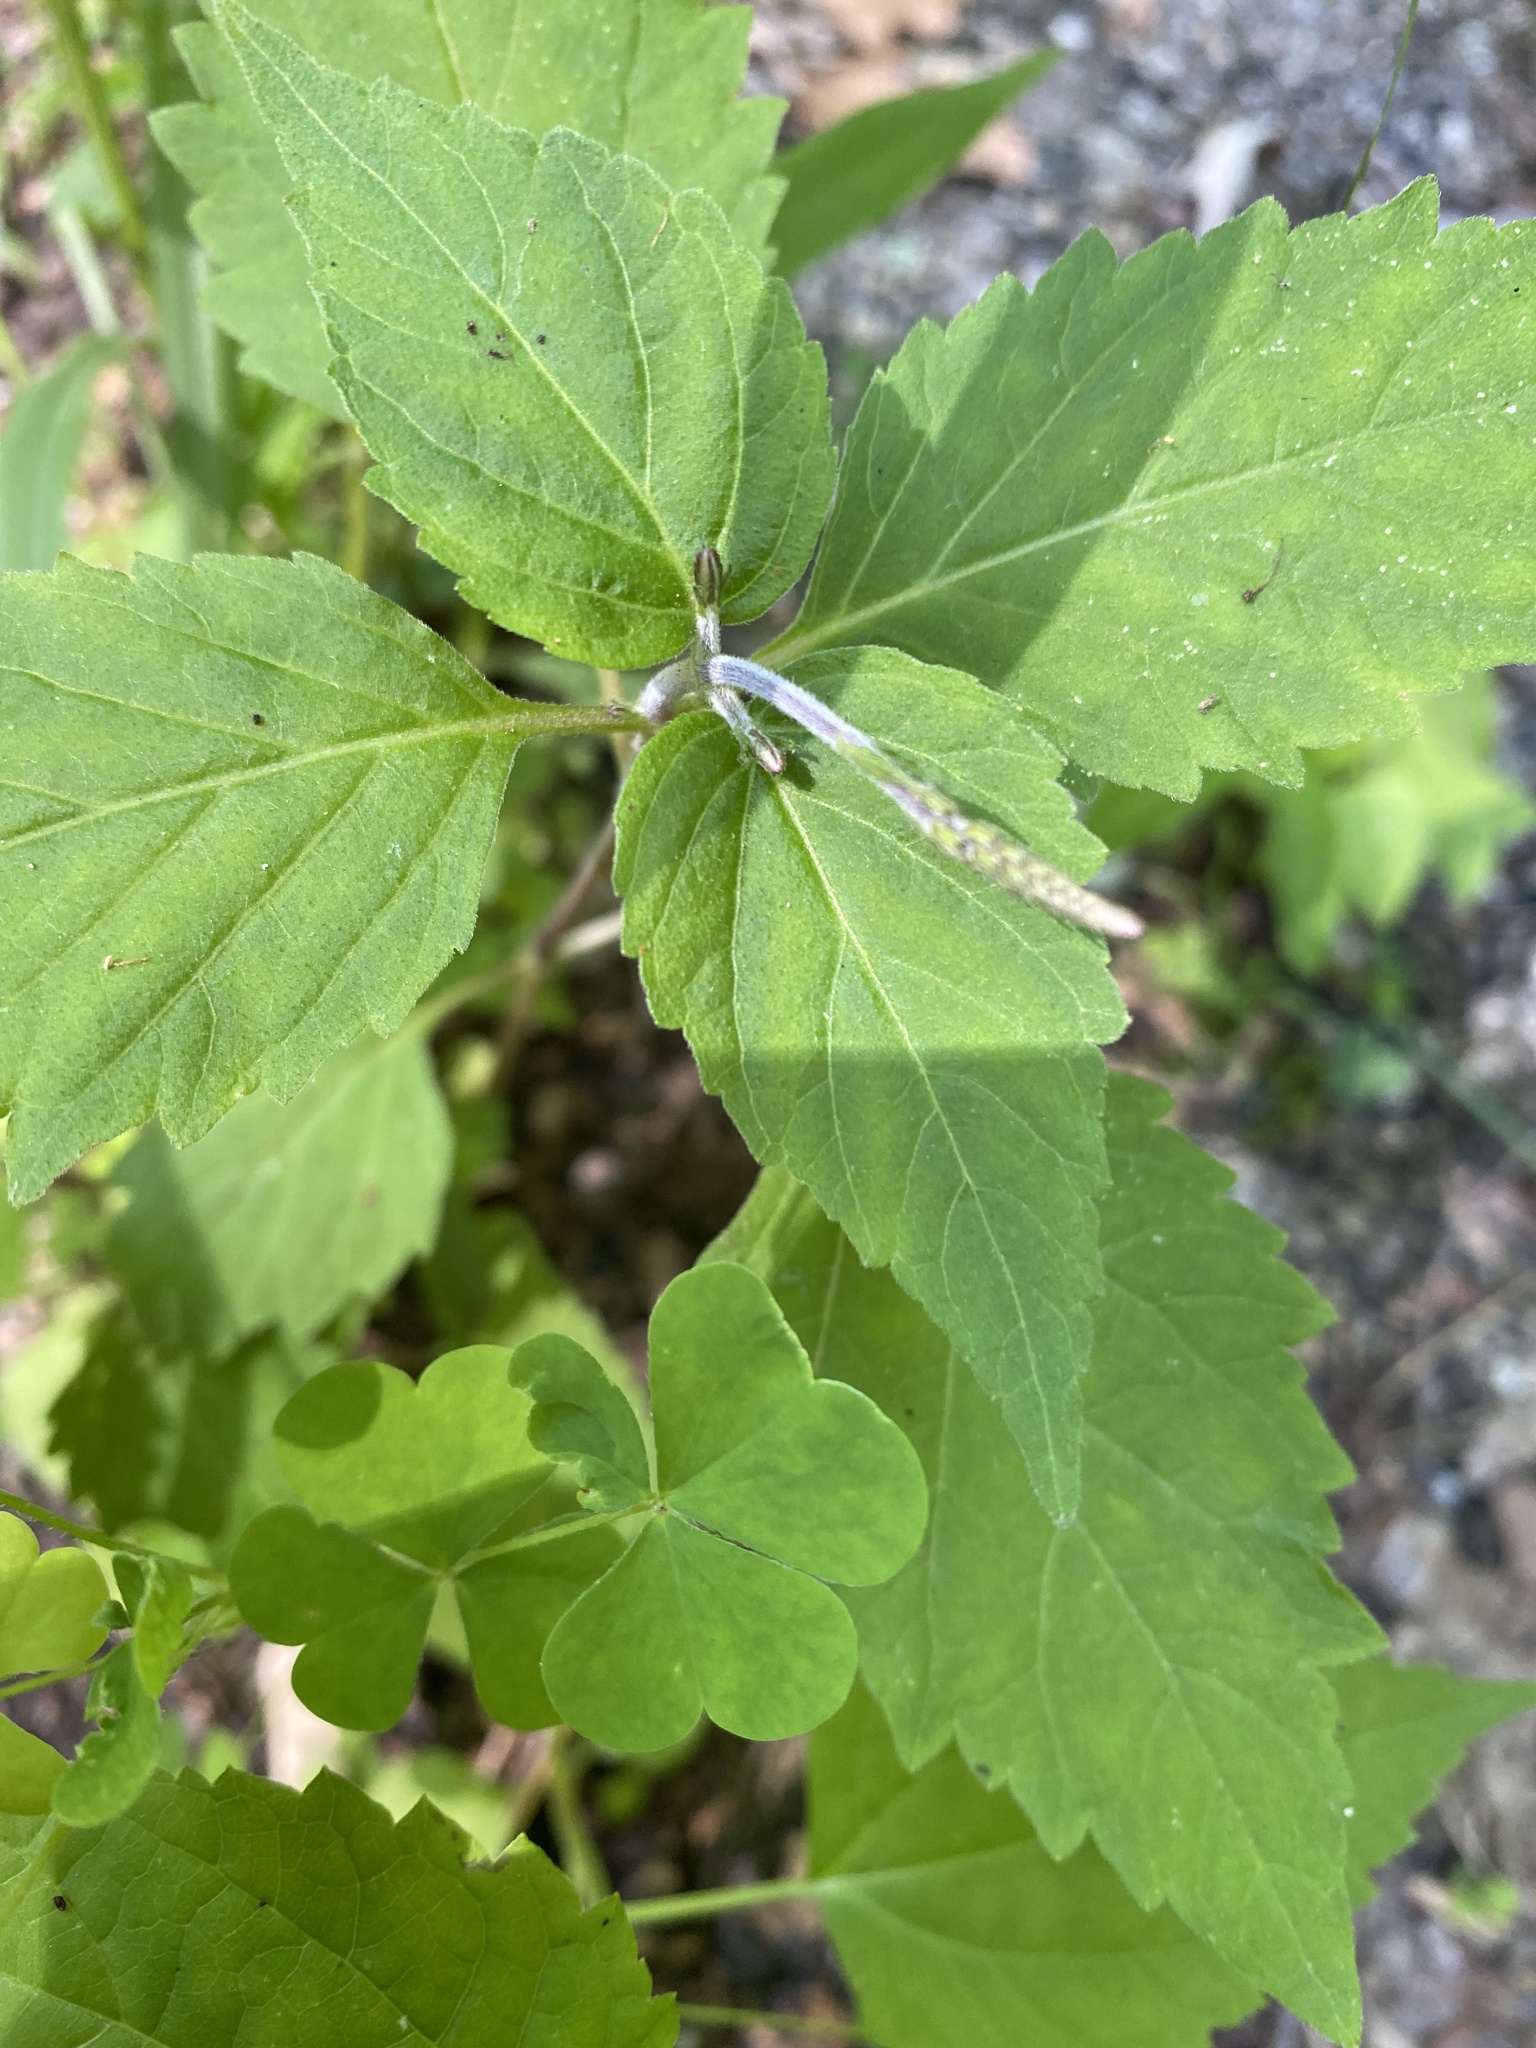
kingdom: Plantae
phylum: Tracheophyta
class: Magnoliopsida
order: Lamiales
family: Phrymaceae
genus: Phryma
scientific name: Phryma leptostachya
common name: American lopseed
